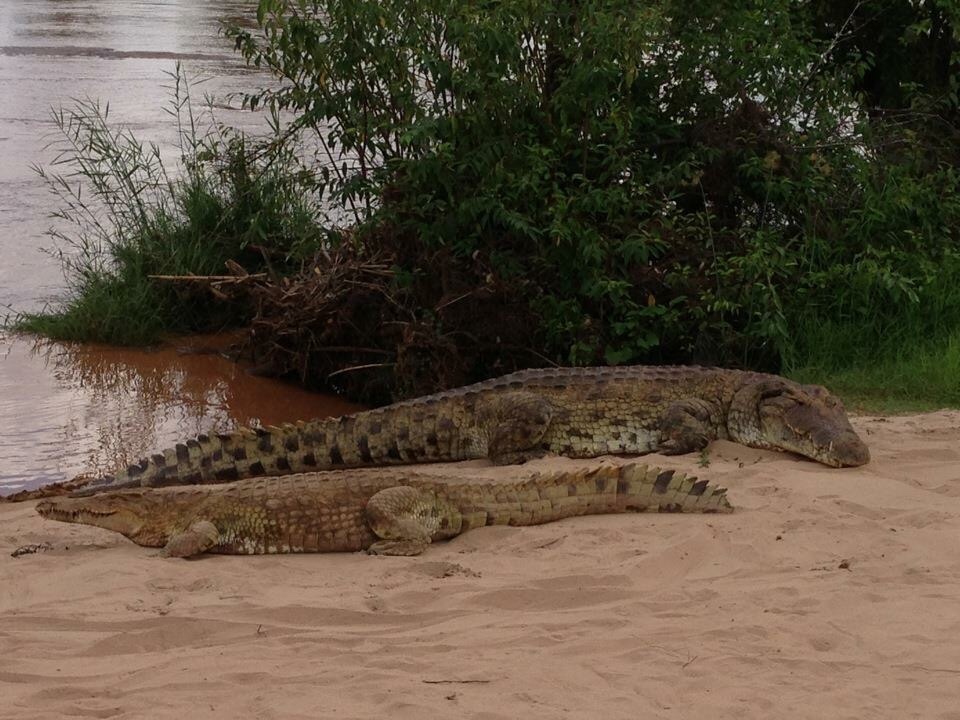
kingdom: Animalia
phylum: Chordata
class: Crocodylia
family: Crocodylidae
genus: Crocodylus
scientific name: Crocodylus niloticus
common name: Nile crocodile
